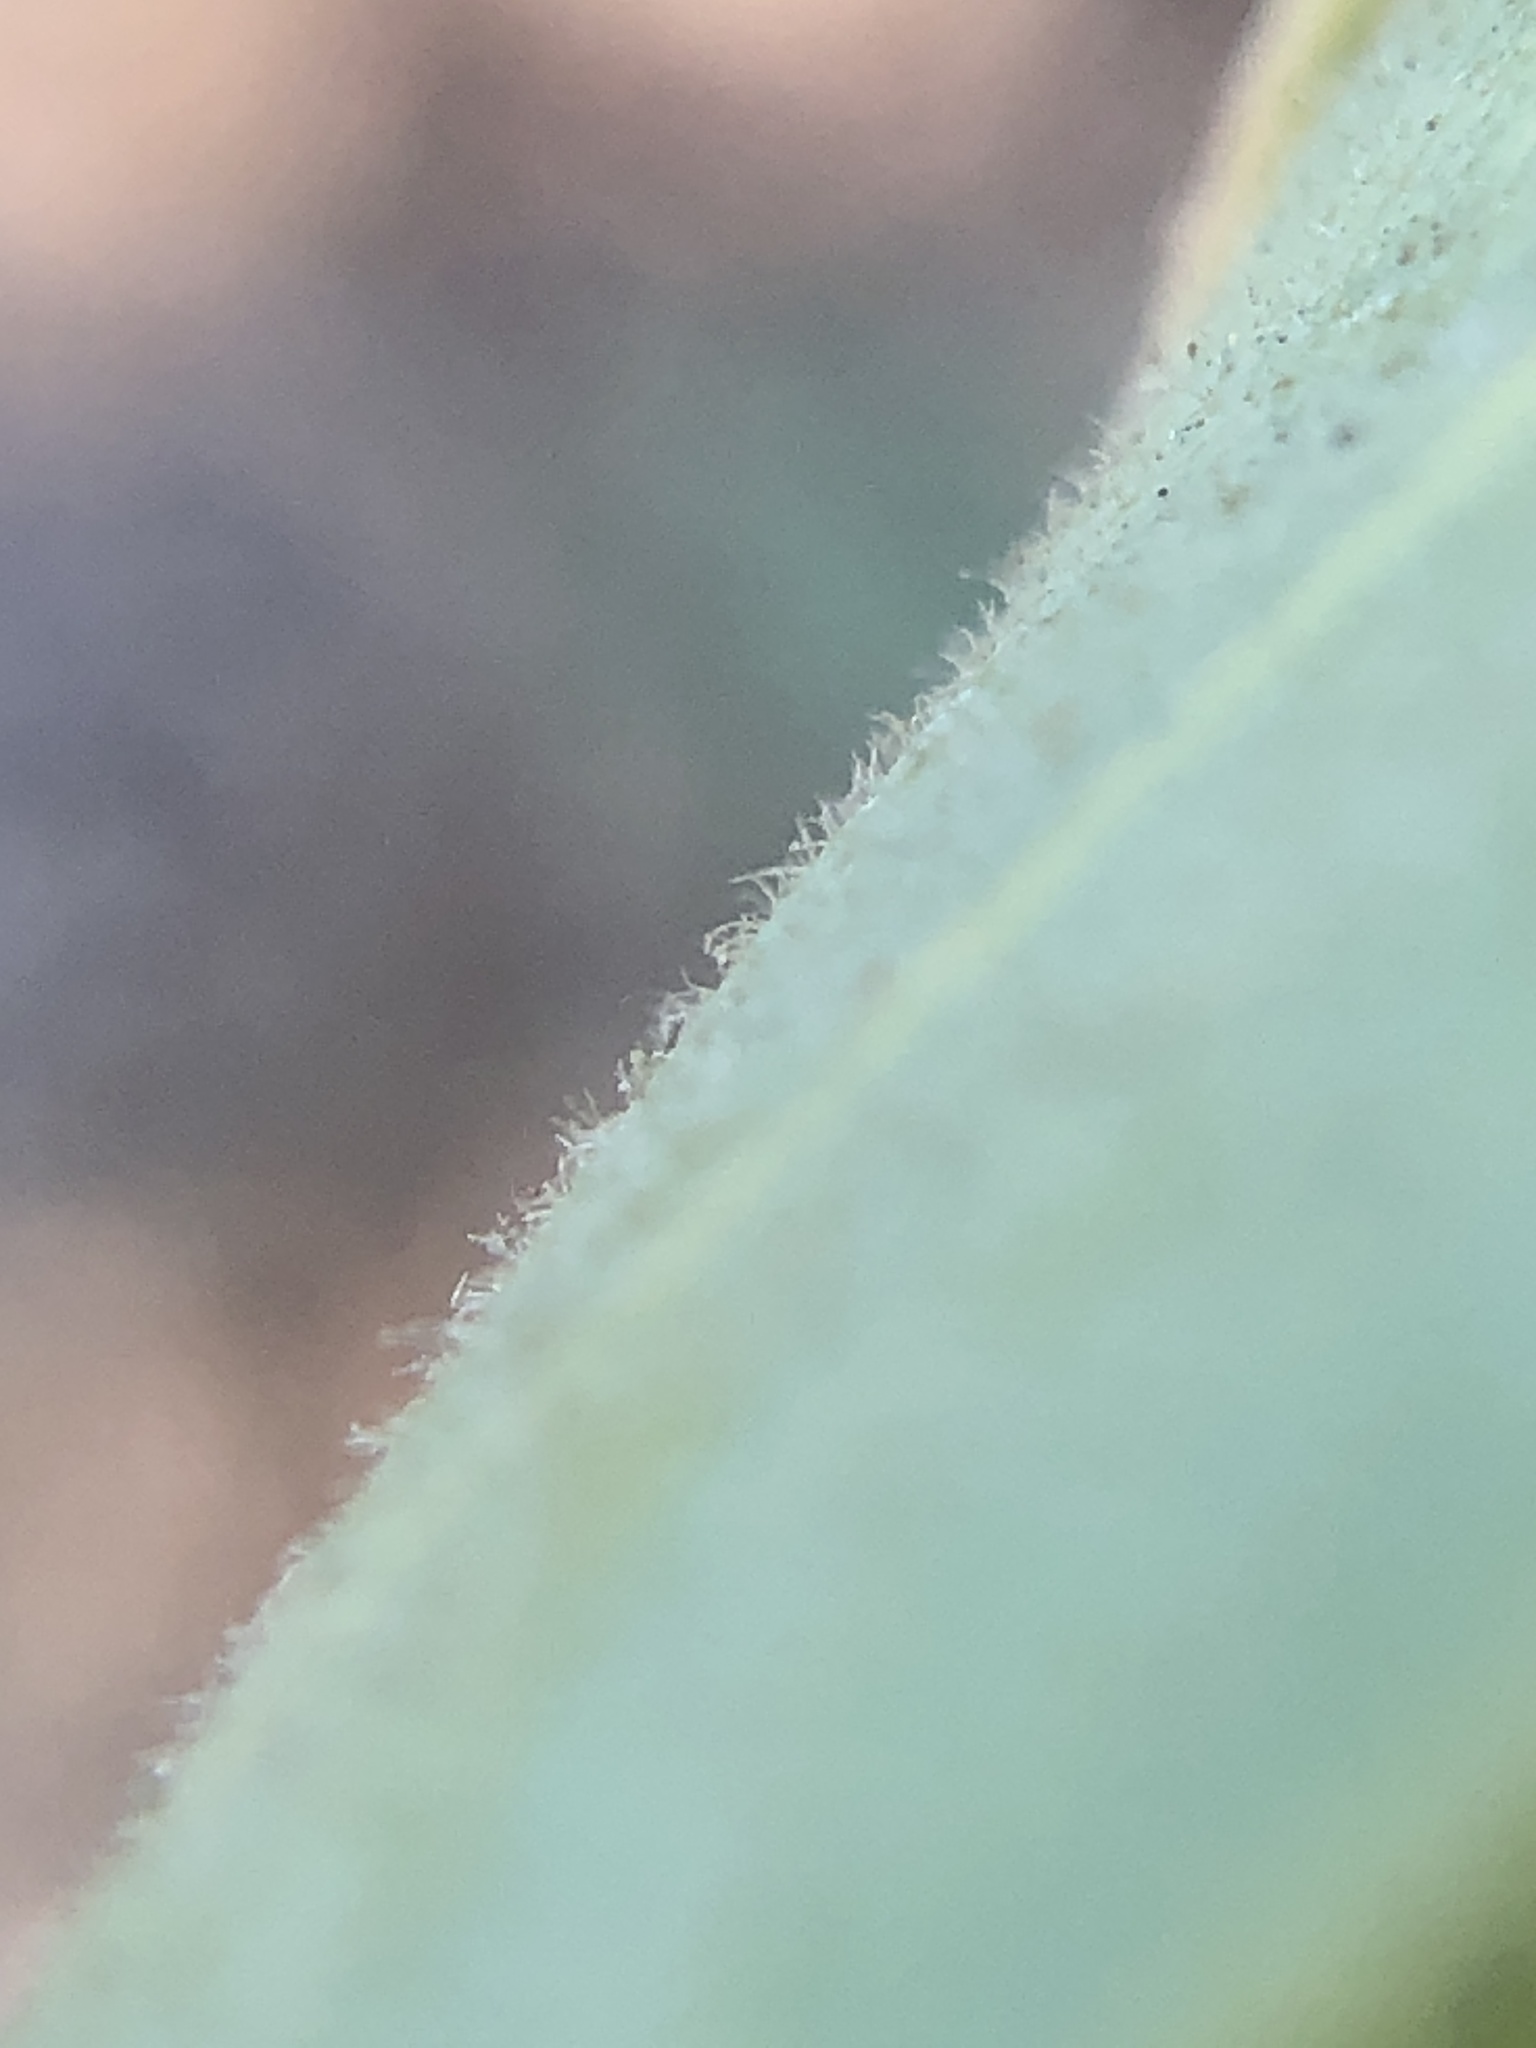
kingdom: Plantae
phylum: Tracheophyta
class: Magnoliopsida
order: Ericales
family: Ericaceae
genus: Arctostaphylos
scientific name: Arctostaphylos glauca
